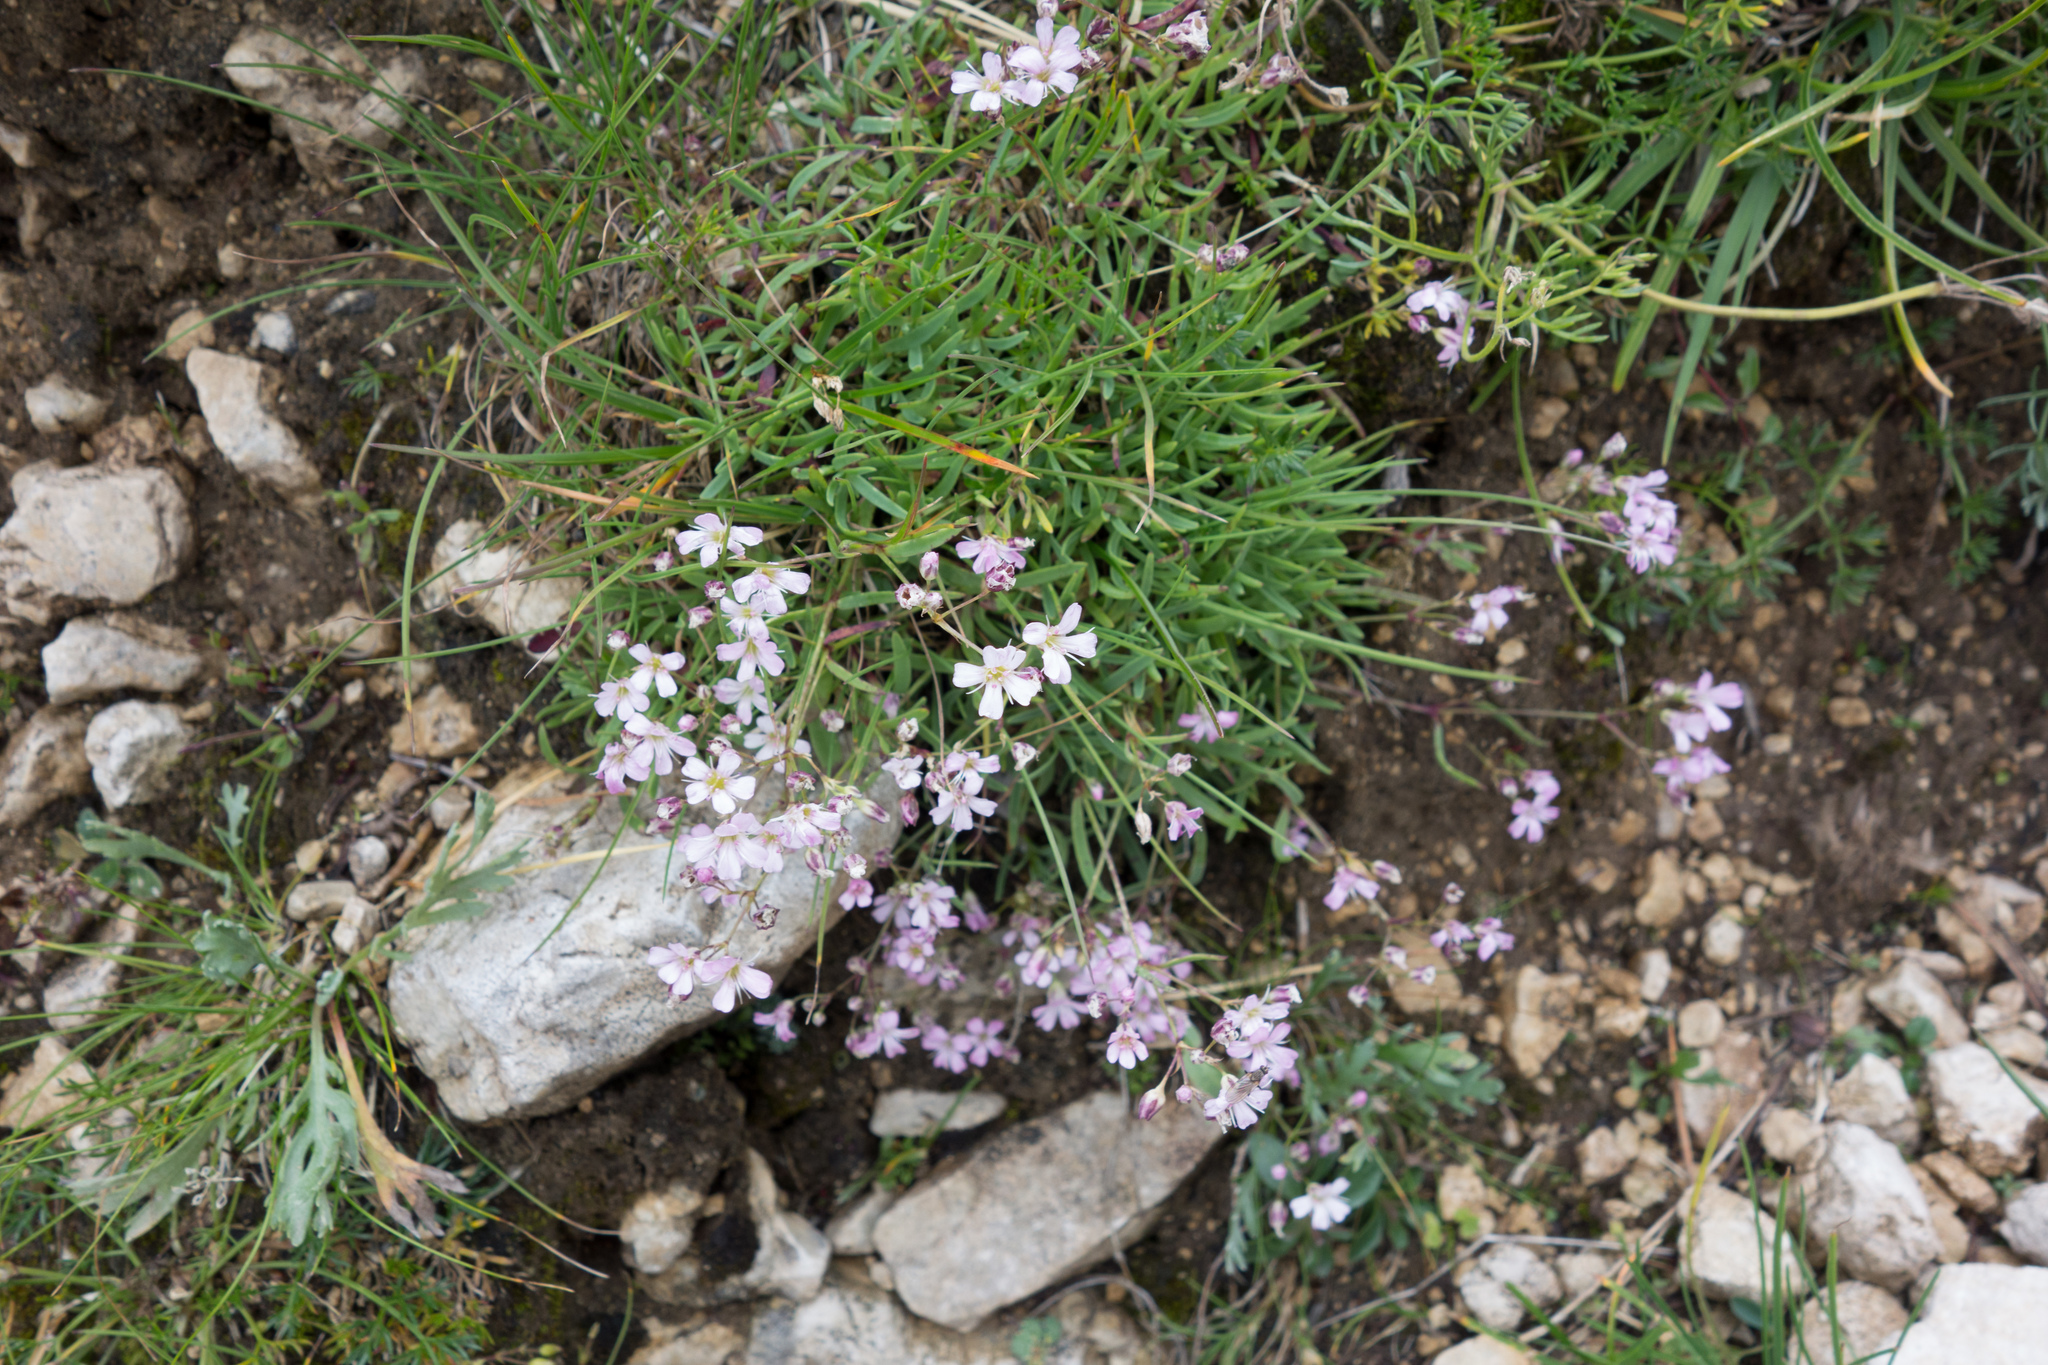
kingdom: Plantae
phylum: Tracheophyta
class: Magnoliopsida
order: Caryophyllales
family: Caryophyllaceae
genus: Gypsophila
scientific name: Gypsophila repens
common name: Creeping baby's-breath
